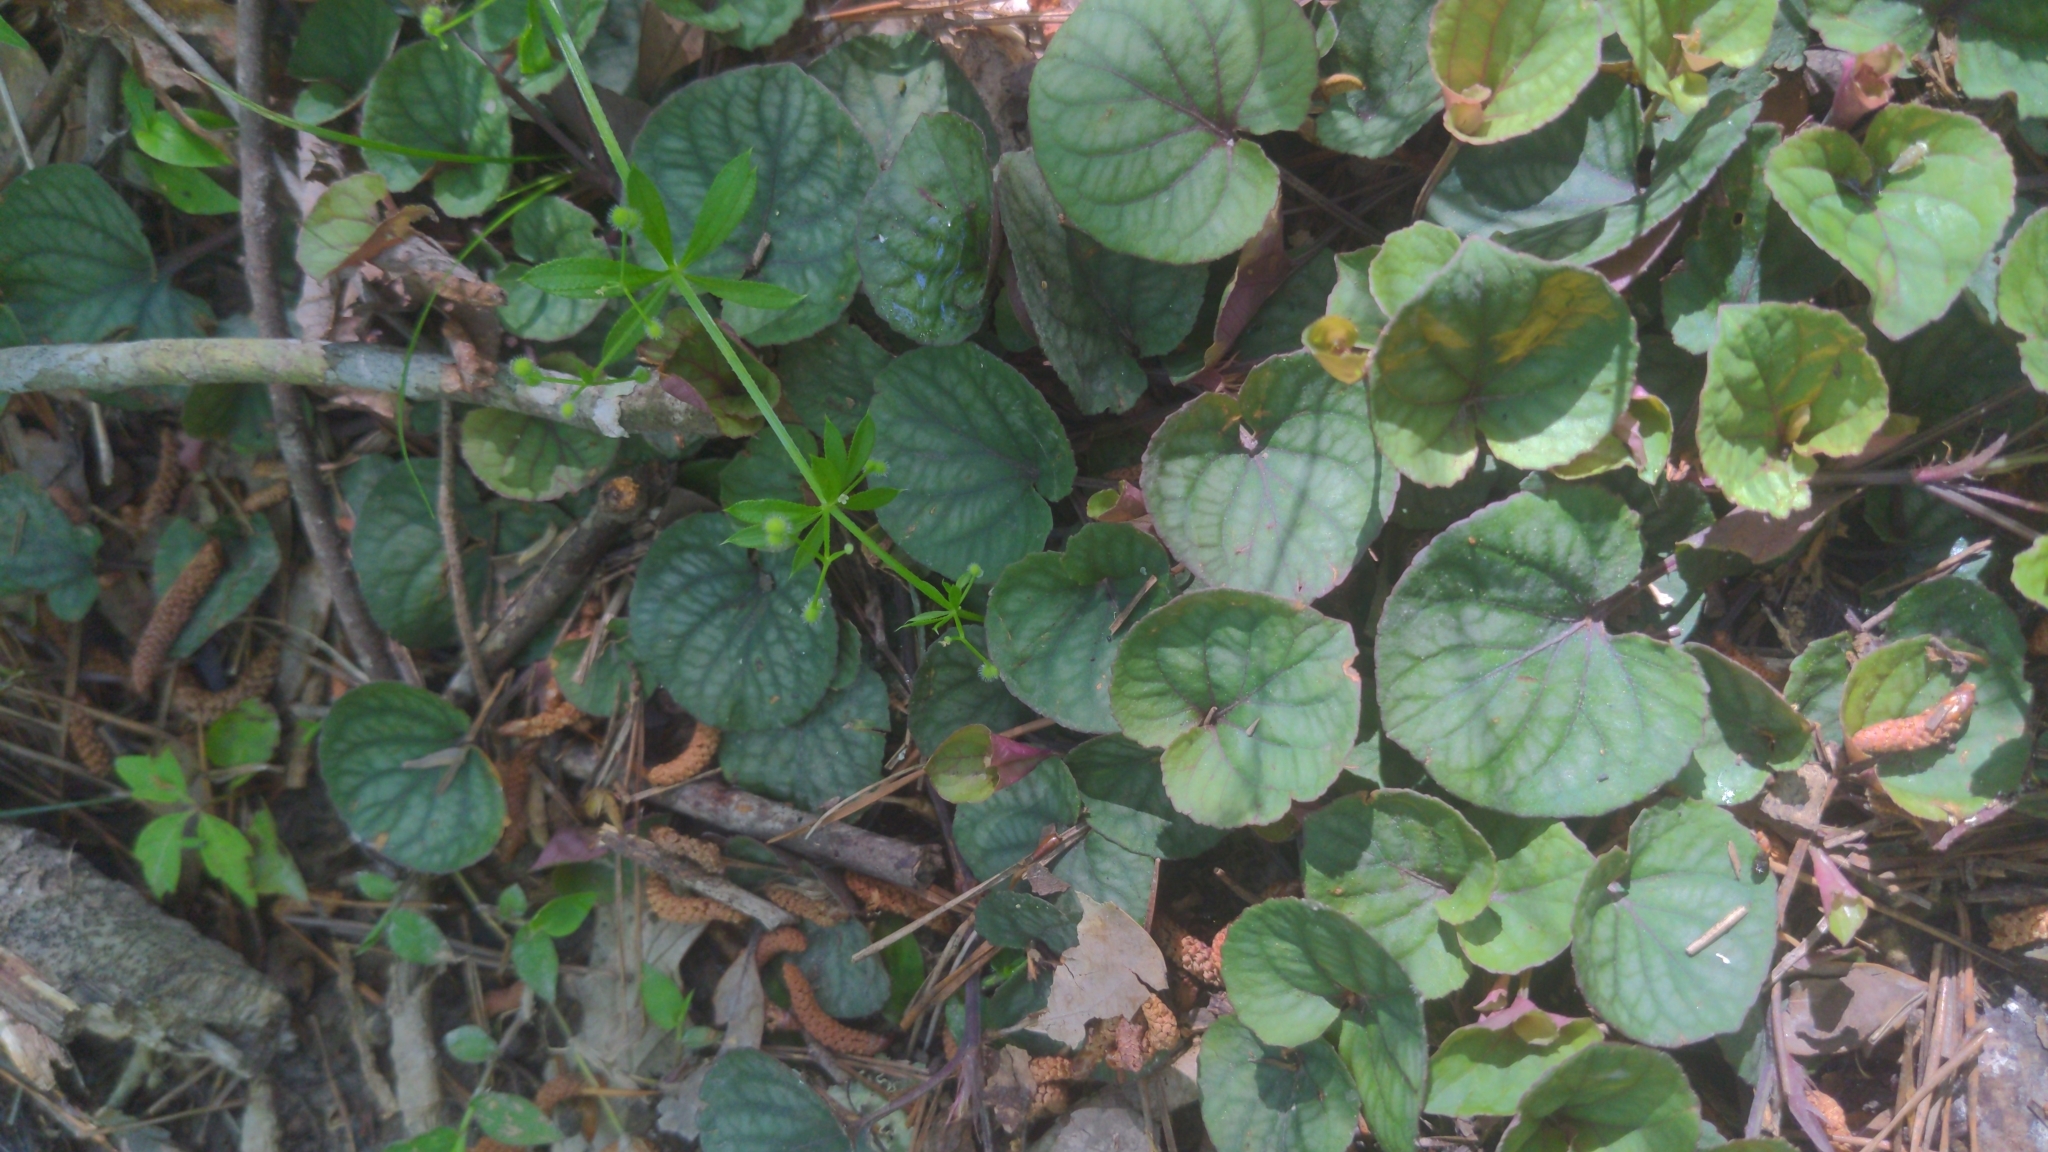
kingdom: Plantae
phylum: Tracheophyta
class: Magnoliopsida
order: Malpighiales
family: Violaceae
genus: Viola
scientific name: Viola walteri
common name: Prostrate southern violet
